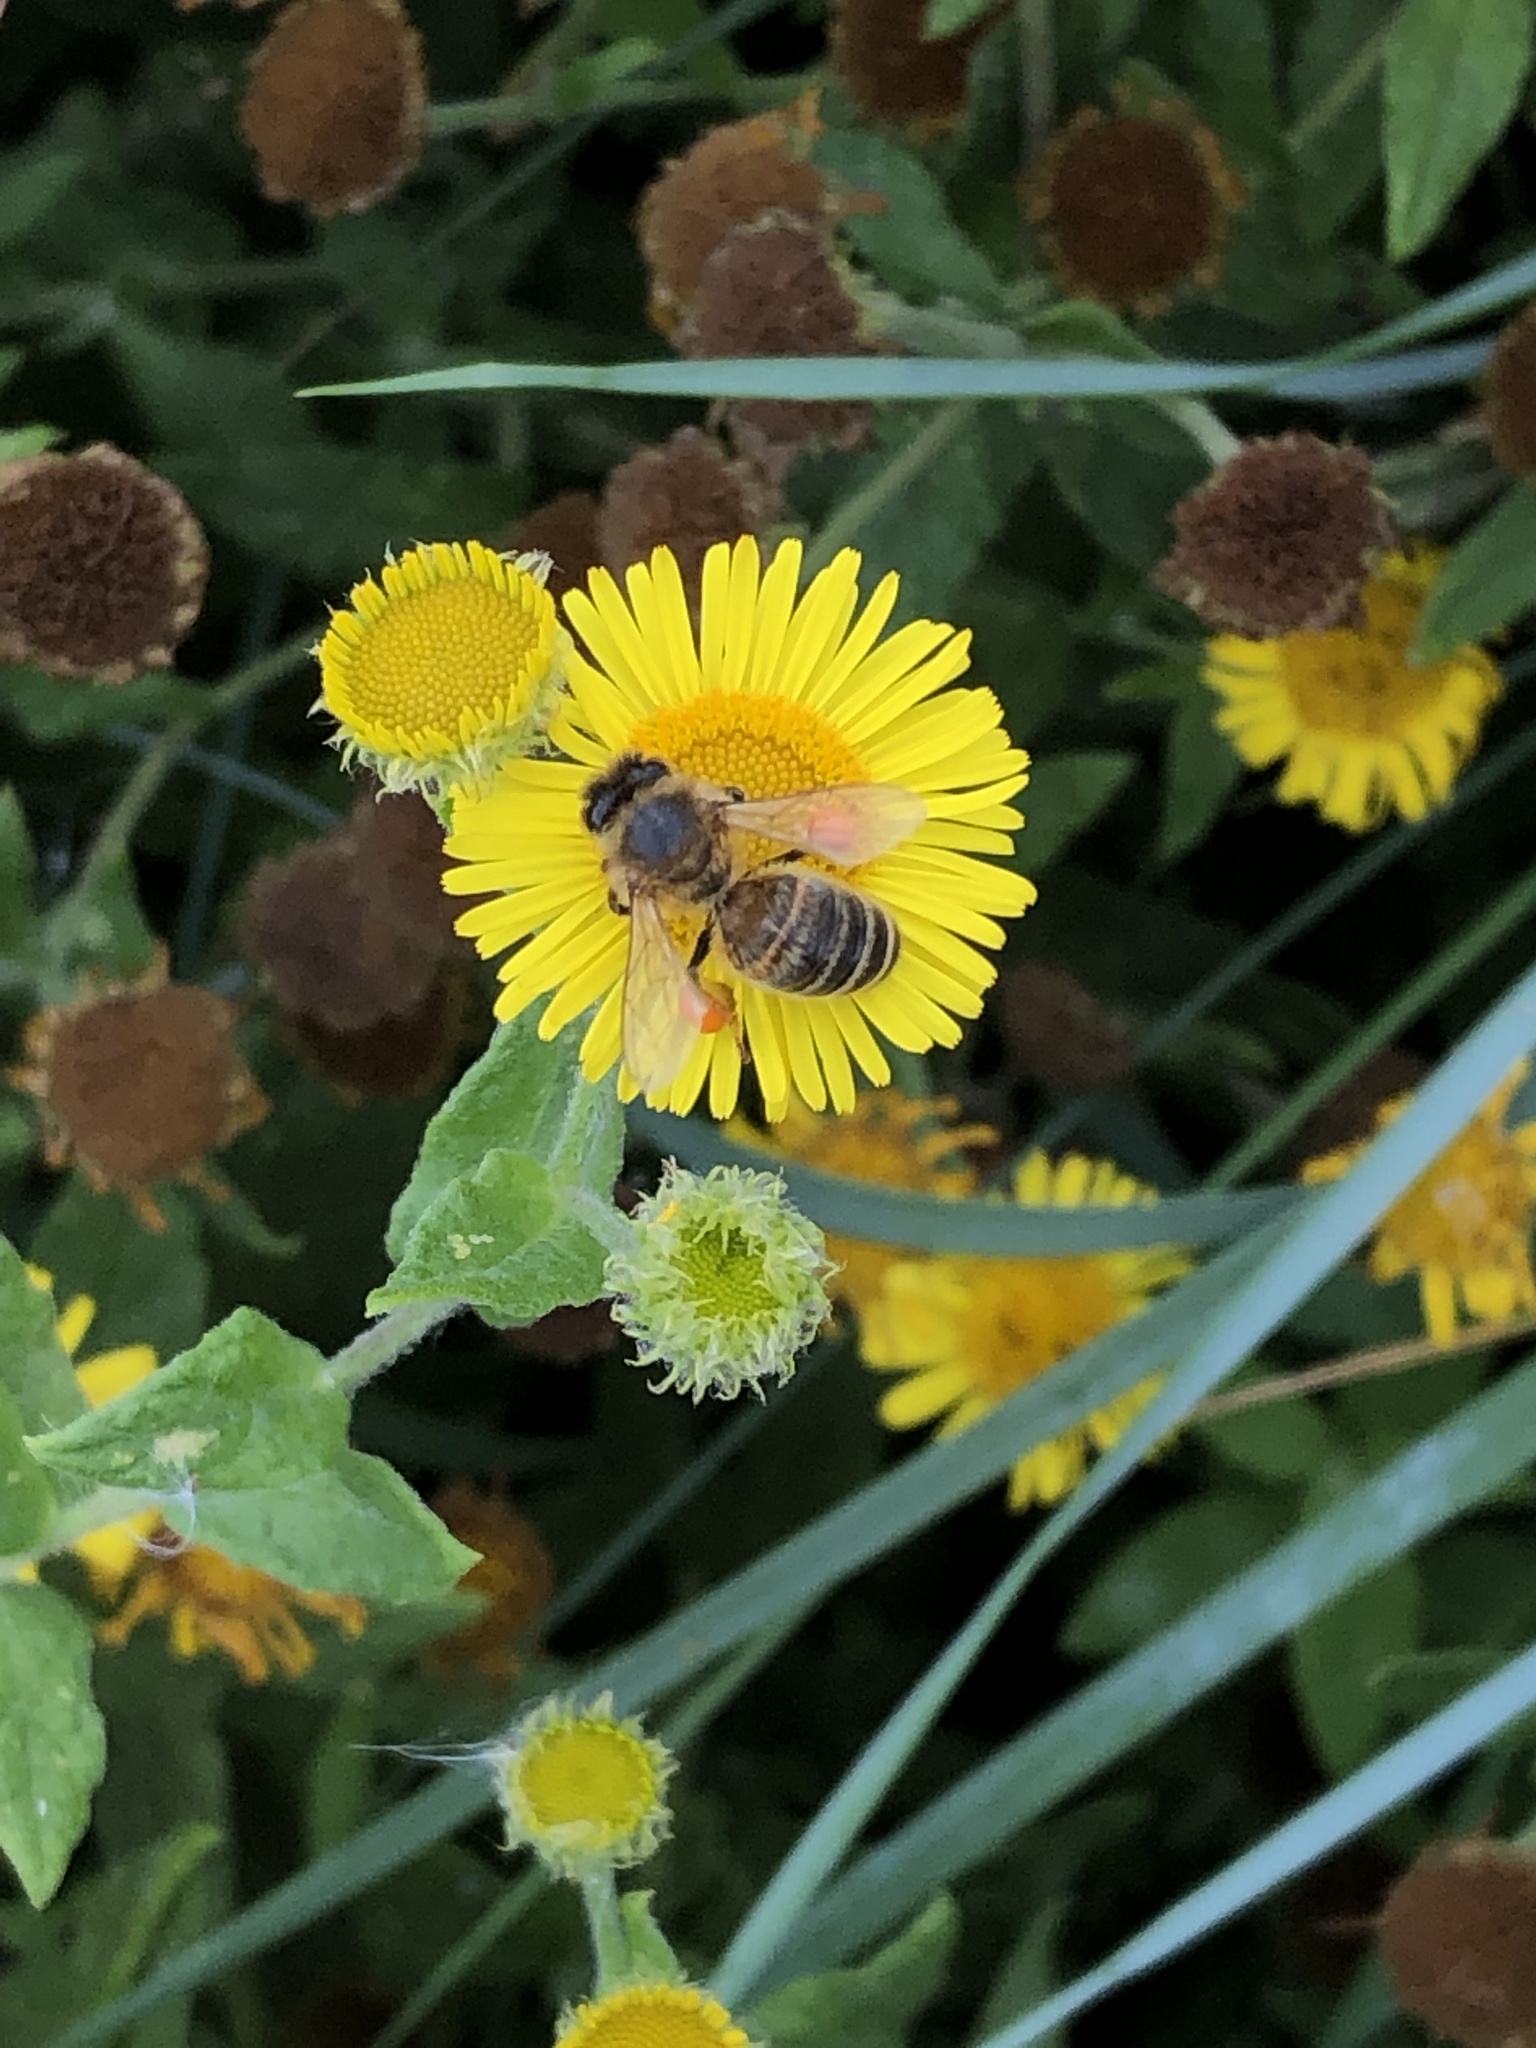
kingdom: Animalia
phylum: Arthropoda
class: Insecta
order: Hymenoptera
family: Apidae
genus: Apis
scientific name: Apis mellifera
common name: Honey bee
